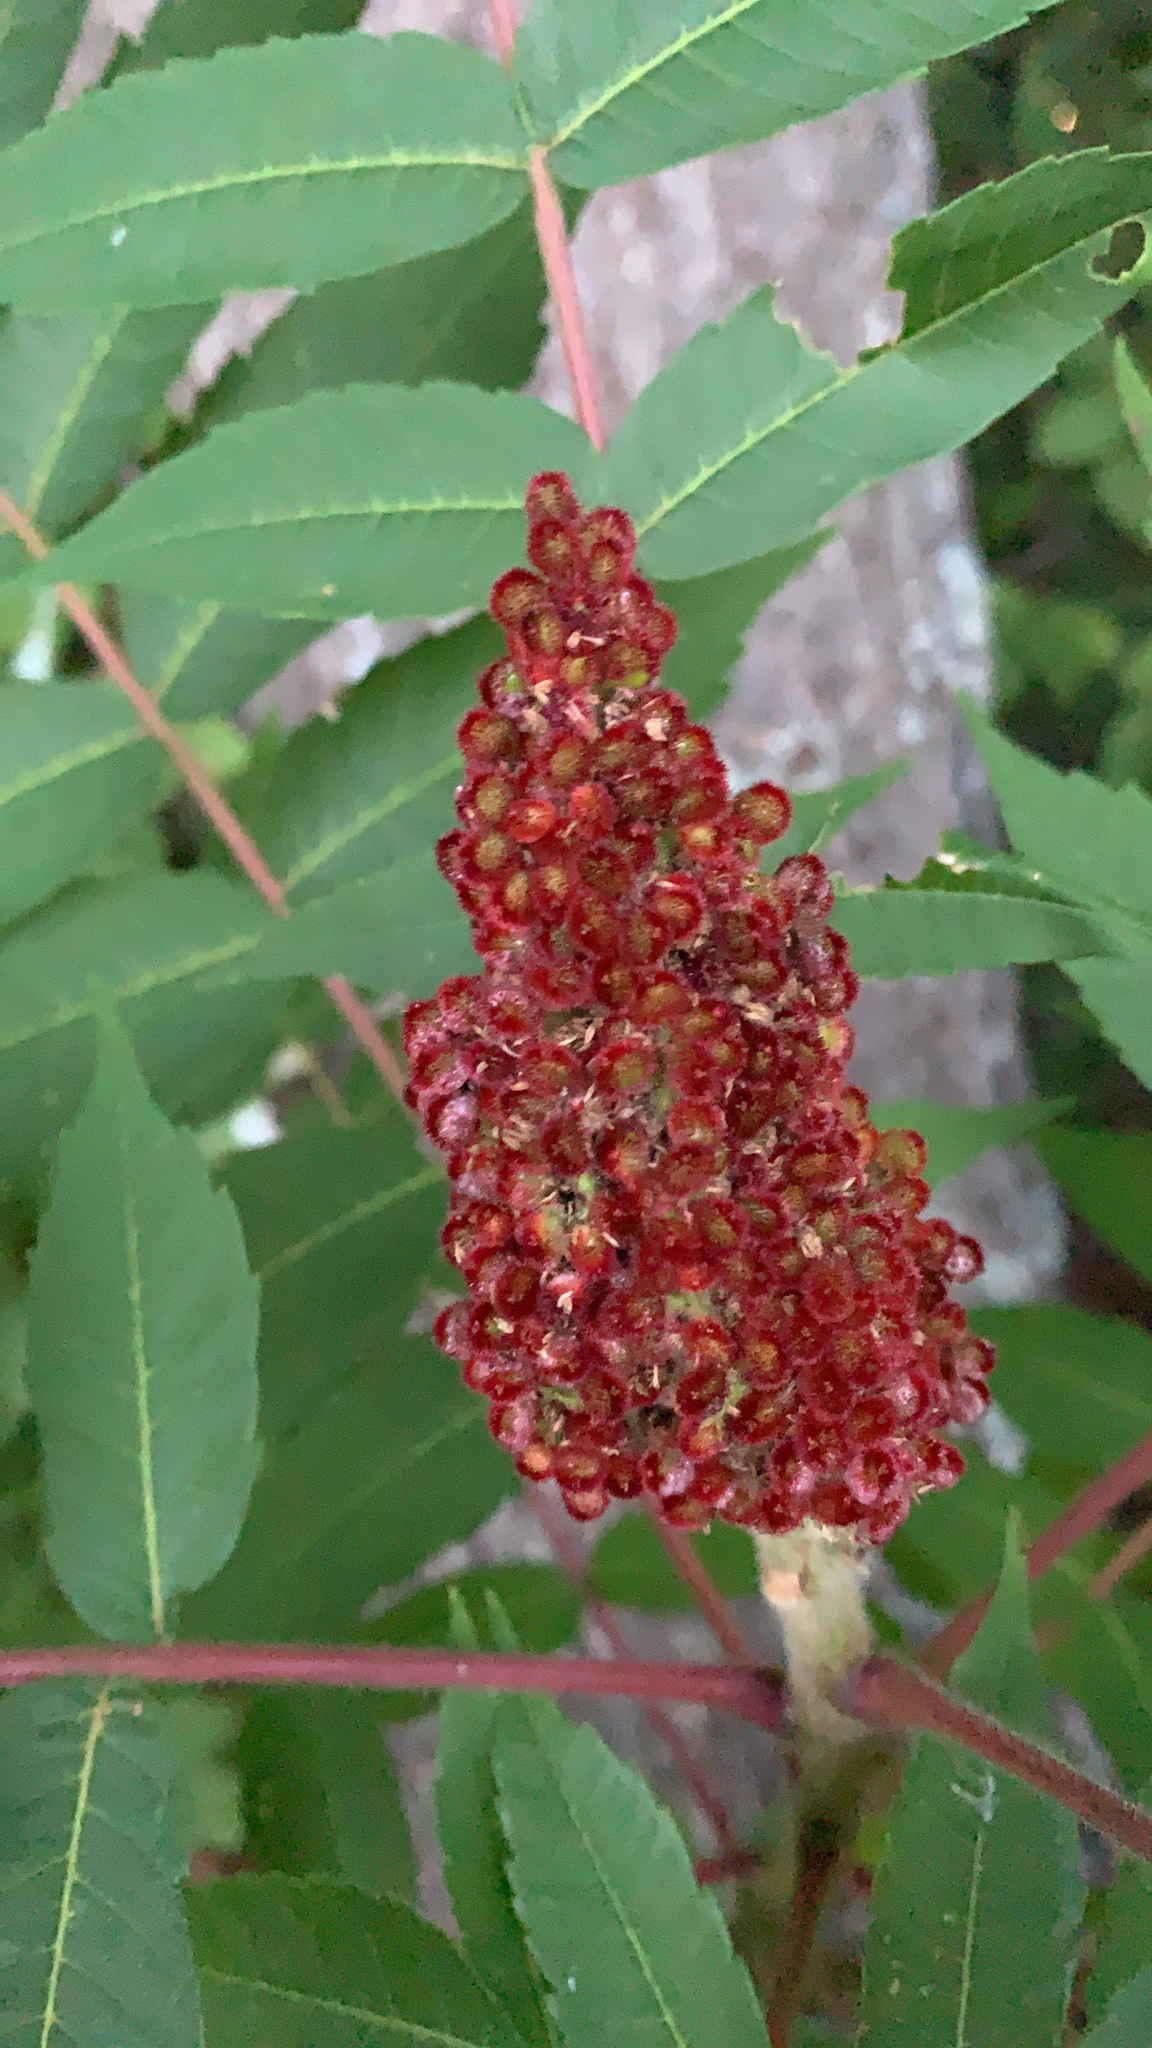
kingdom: Plantae
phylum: Tracheophyta
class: Magnoliopsida
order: Sapindales
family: Anacardiaceae
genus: Rhus
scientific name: Rhus typhina
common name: Staghorn sumac
